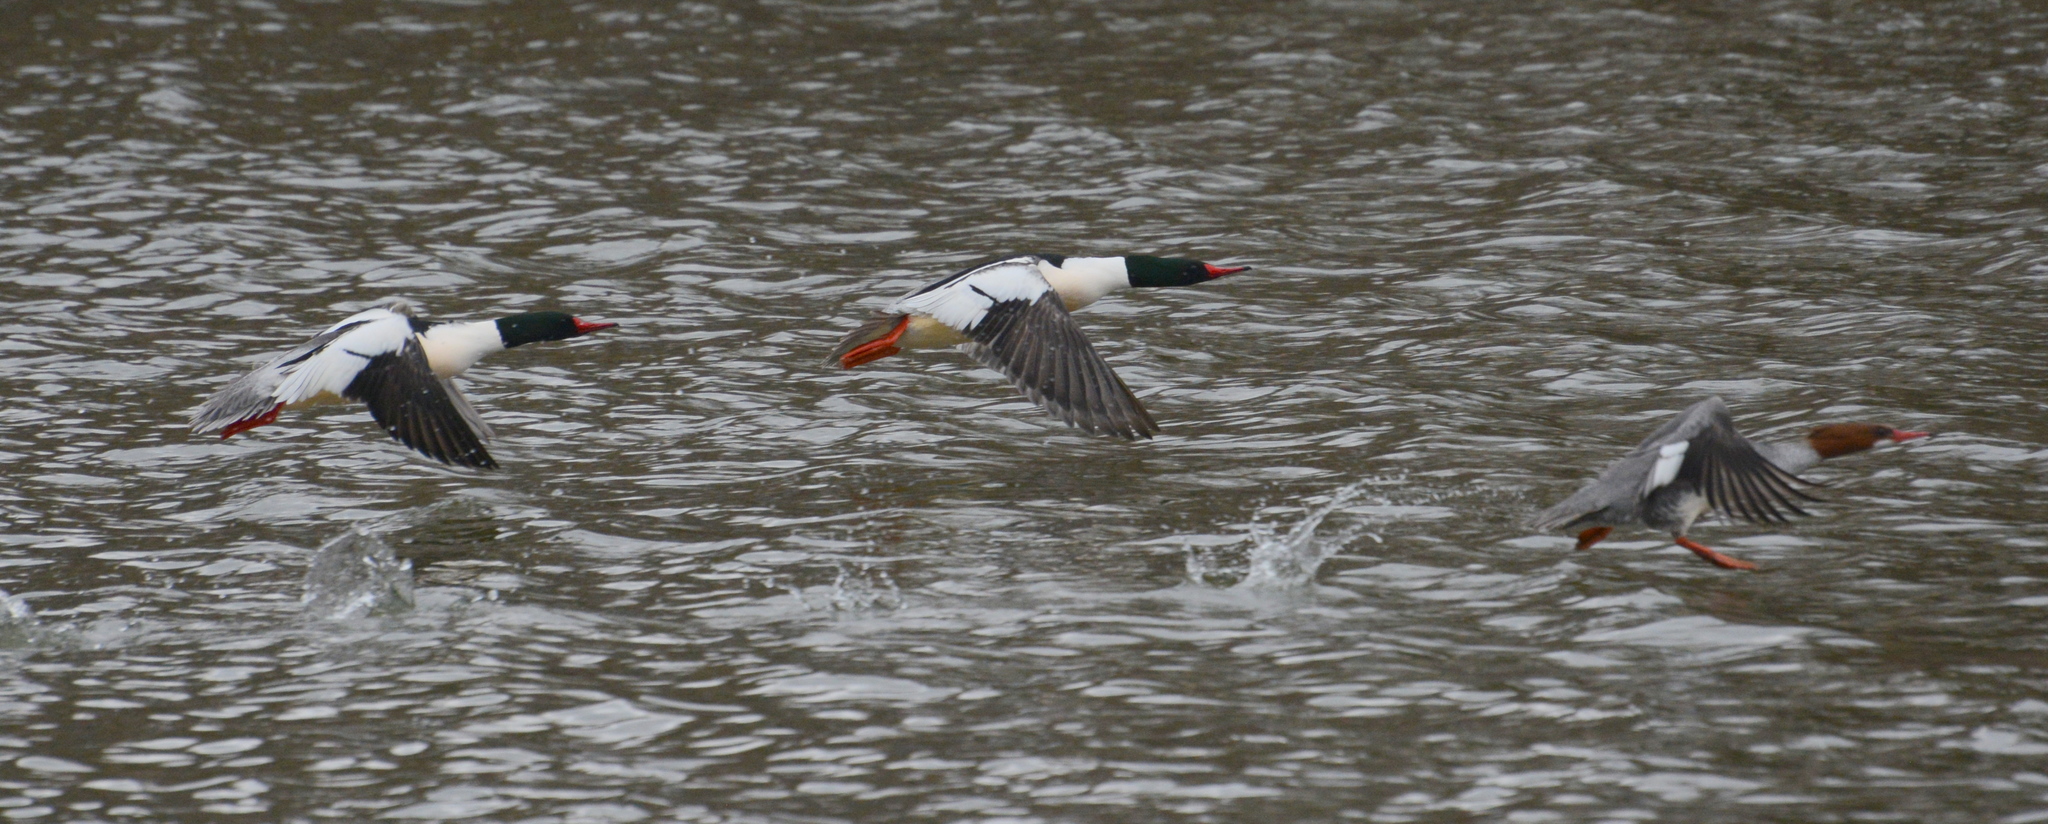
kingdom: Animalia
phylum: Chordata
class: Aves
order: Anseriformes
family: Anatidae
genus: Mergus
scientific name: Mergus merganser
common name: Common merganser
